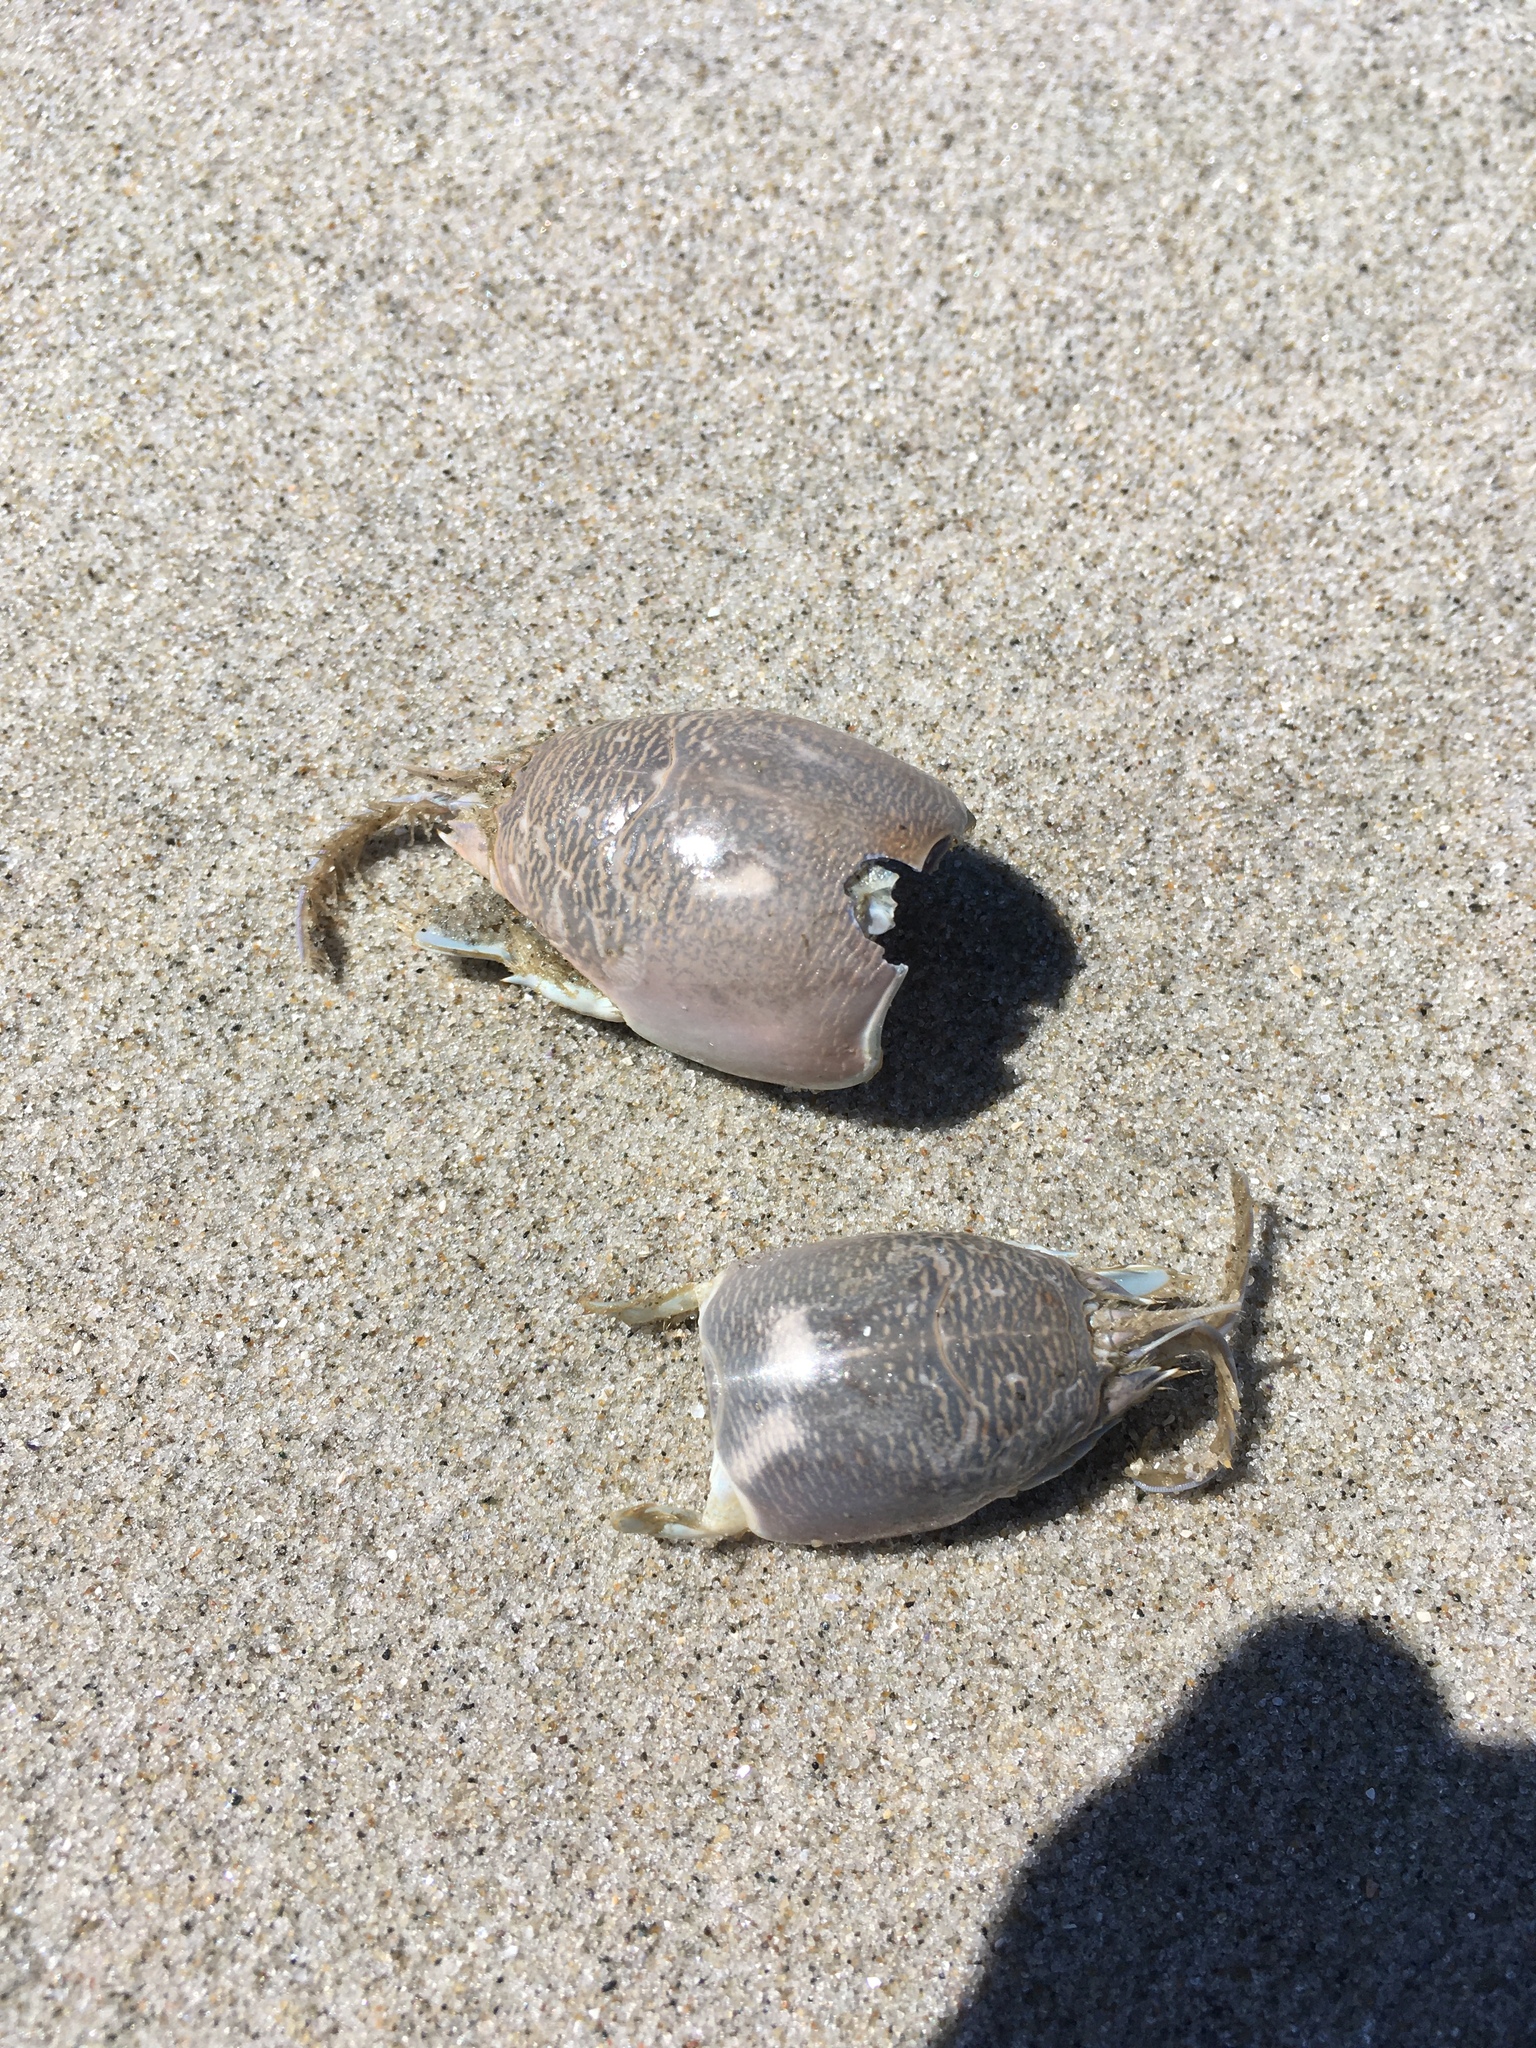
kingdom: Animalia
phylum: Arthropoda
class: Malacostraca
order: Decapoda
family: Hippidae
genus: Emerita
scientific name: Emerita talpoida
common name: Atlantic sand crab
